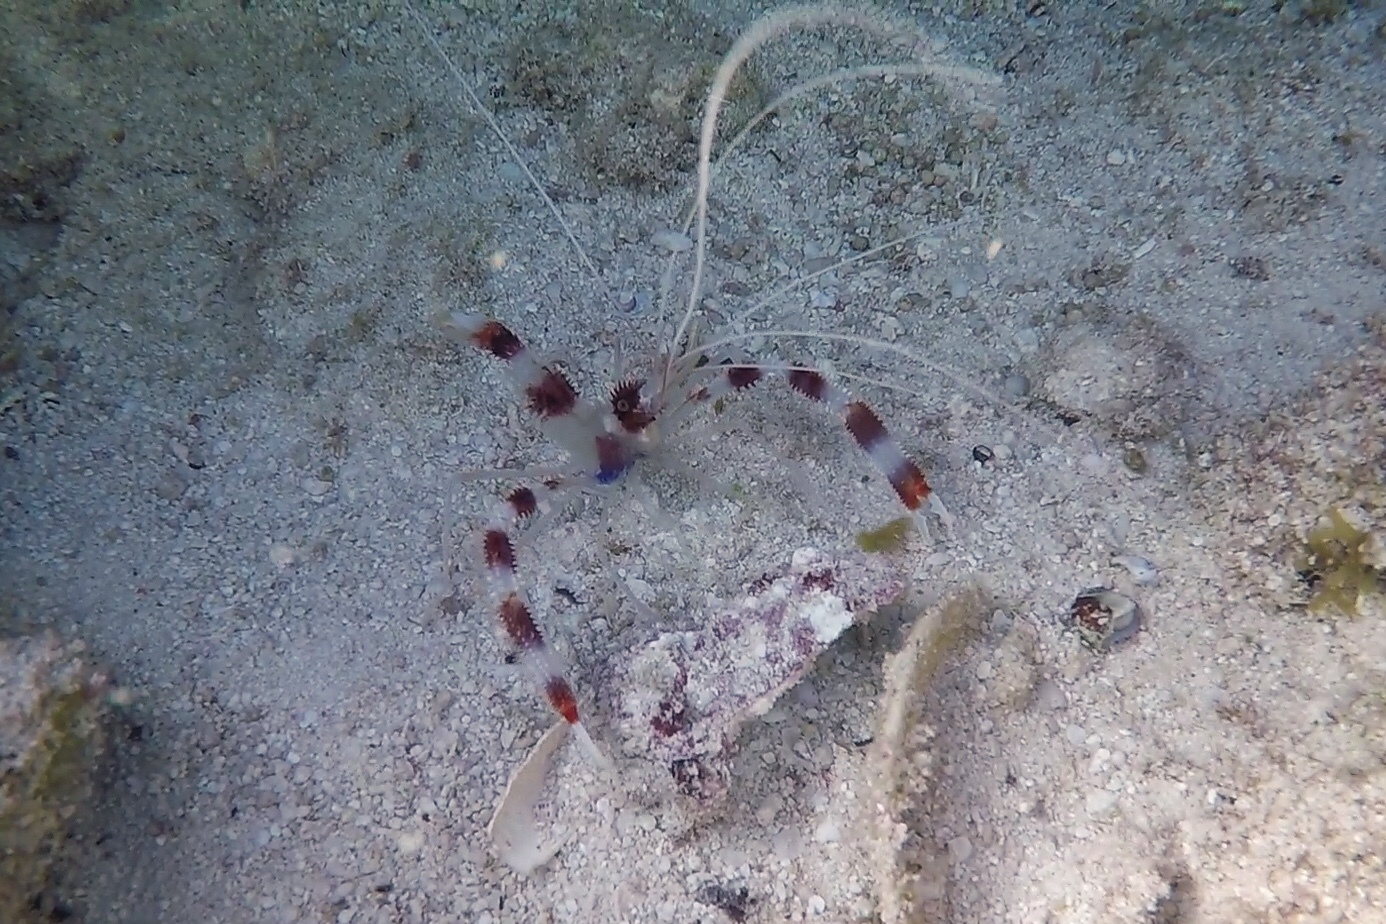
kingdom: Animalia
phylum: Arthropoda
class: Malacostraca
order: Decapoda
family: Stenopodidae
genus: Stenopus
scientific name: Stenopus hispidus
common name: Banded coral shrimp
